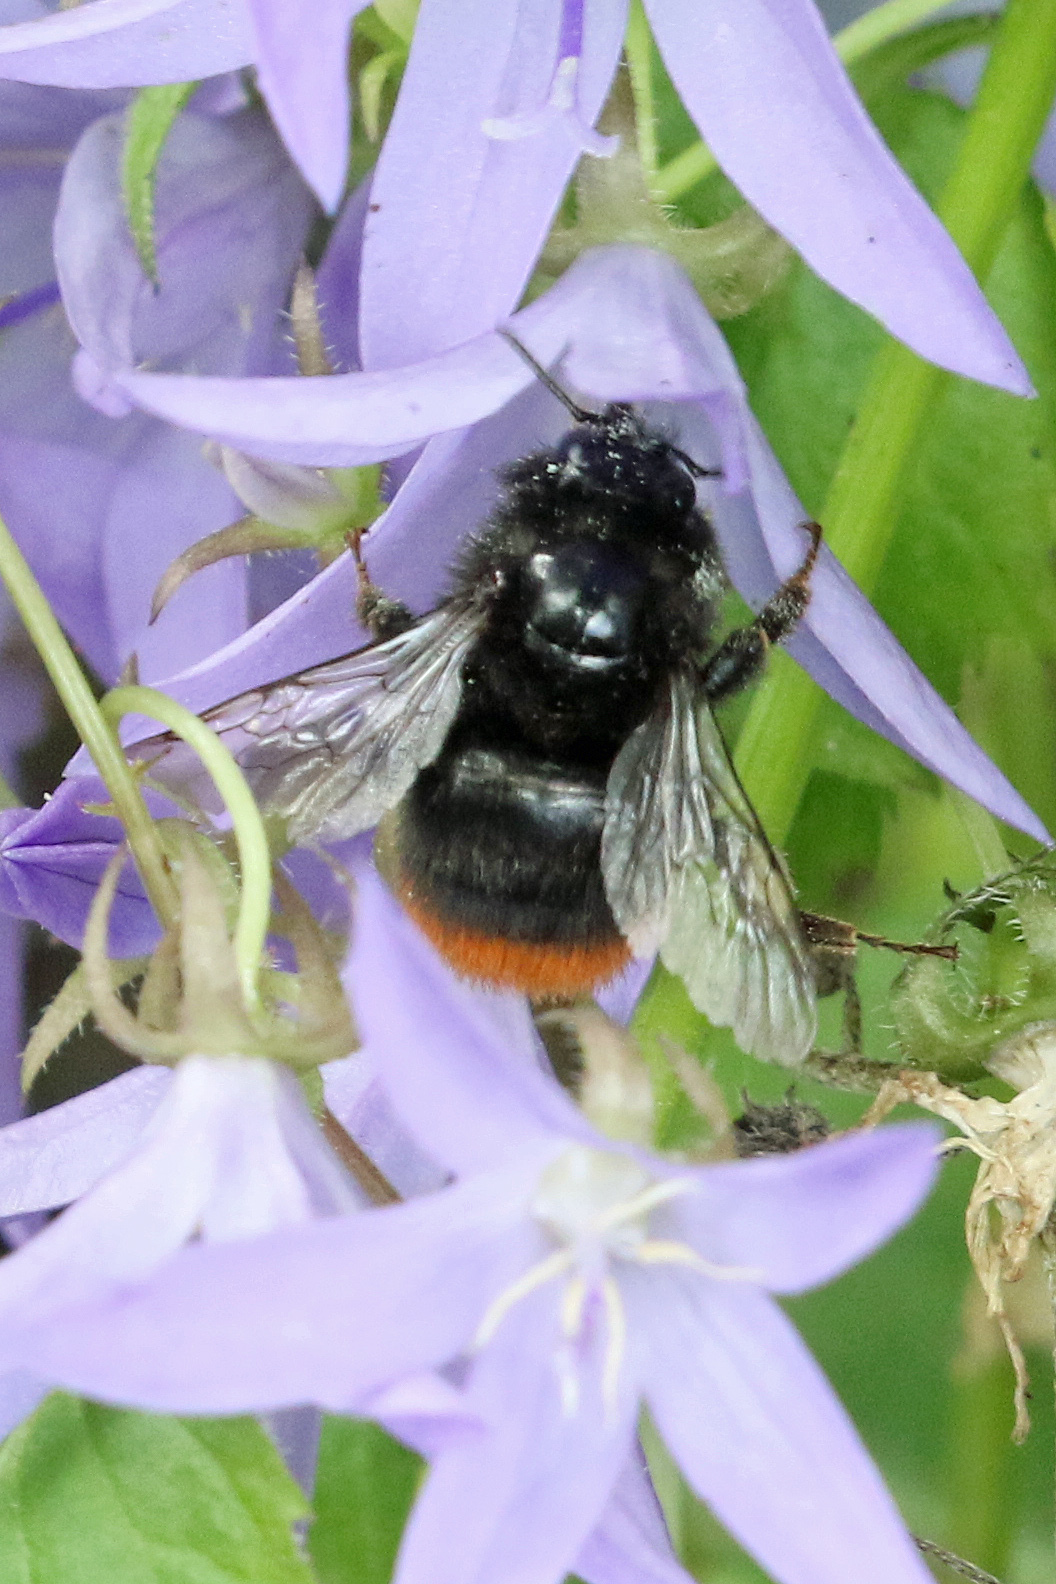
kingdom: Animalia
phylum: Arthropoda
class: Insecta
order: Hymenoptera
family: Apidae
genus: Bombus
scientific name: Bombus lapidarius
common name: Large red-tailed humble-bee
